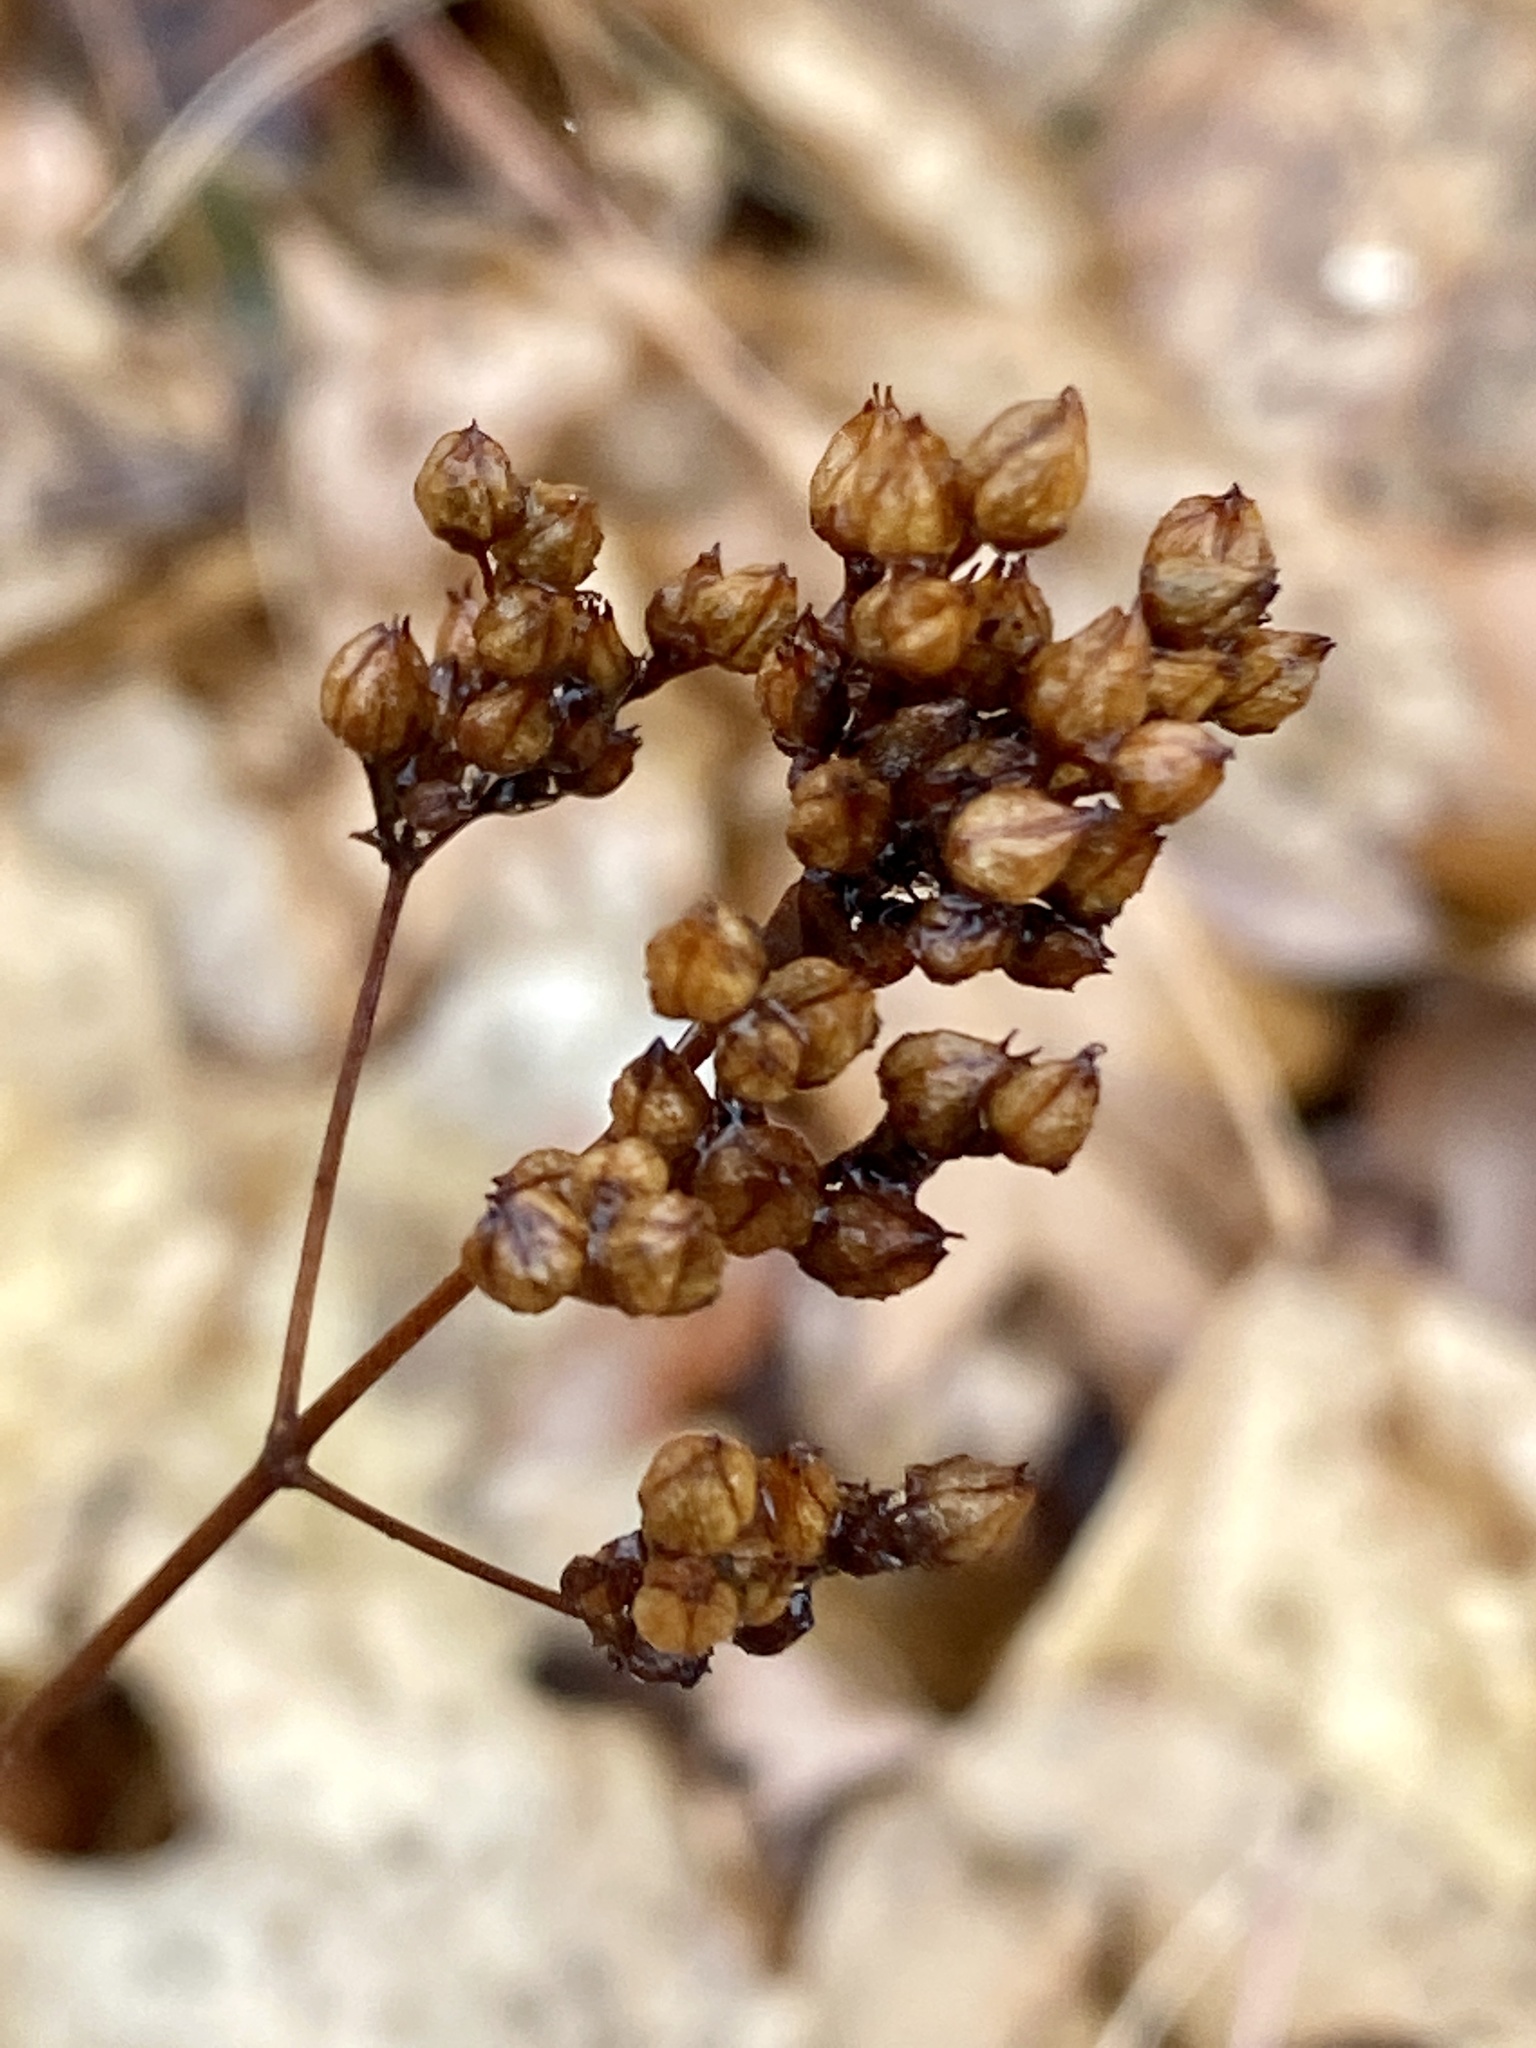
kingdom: Plantae
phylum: Tracheophyta
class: Magnoliopsida
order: Malpighiales
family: Hypericaceae
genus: Hypericum
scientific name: Hypericum punctatum
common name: Spotted st. john's-wort
